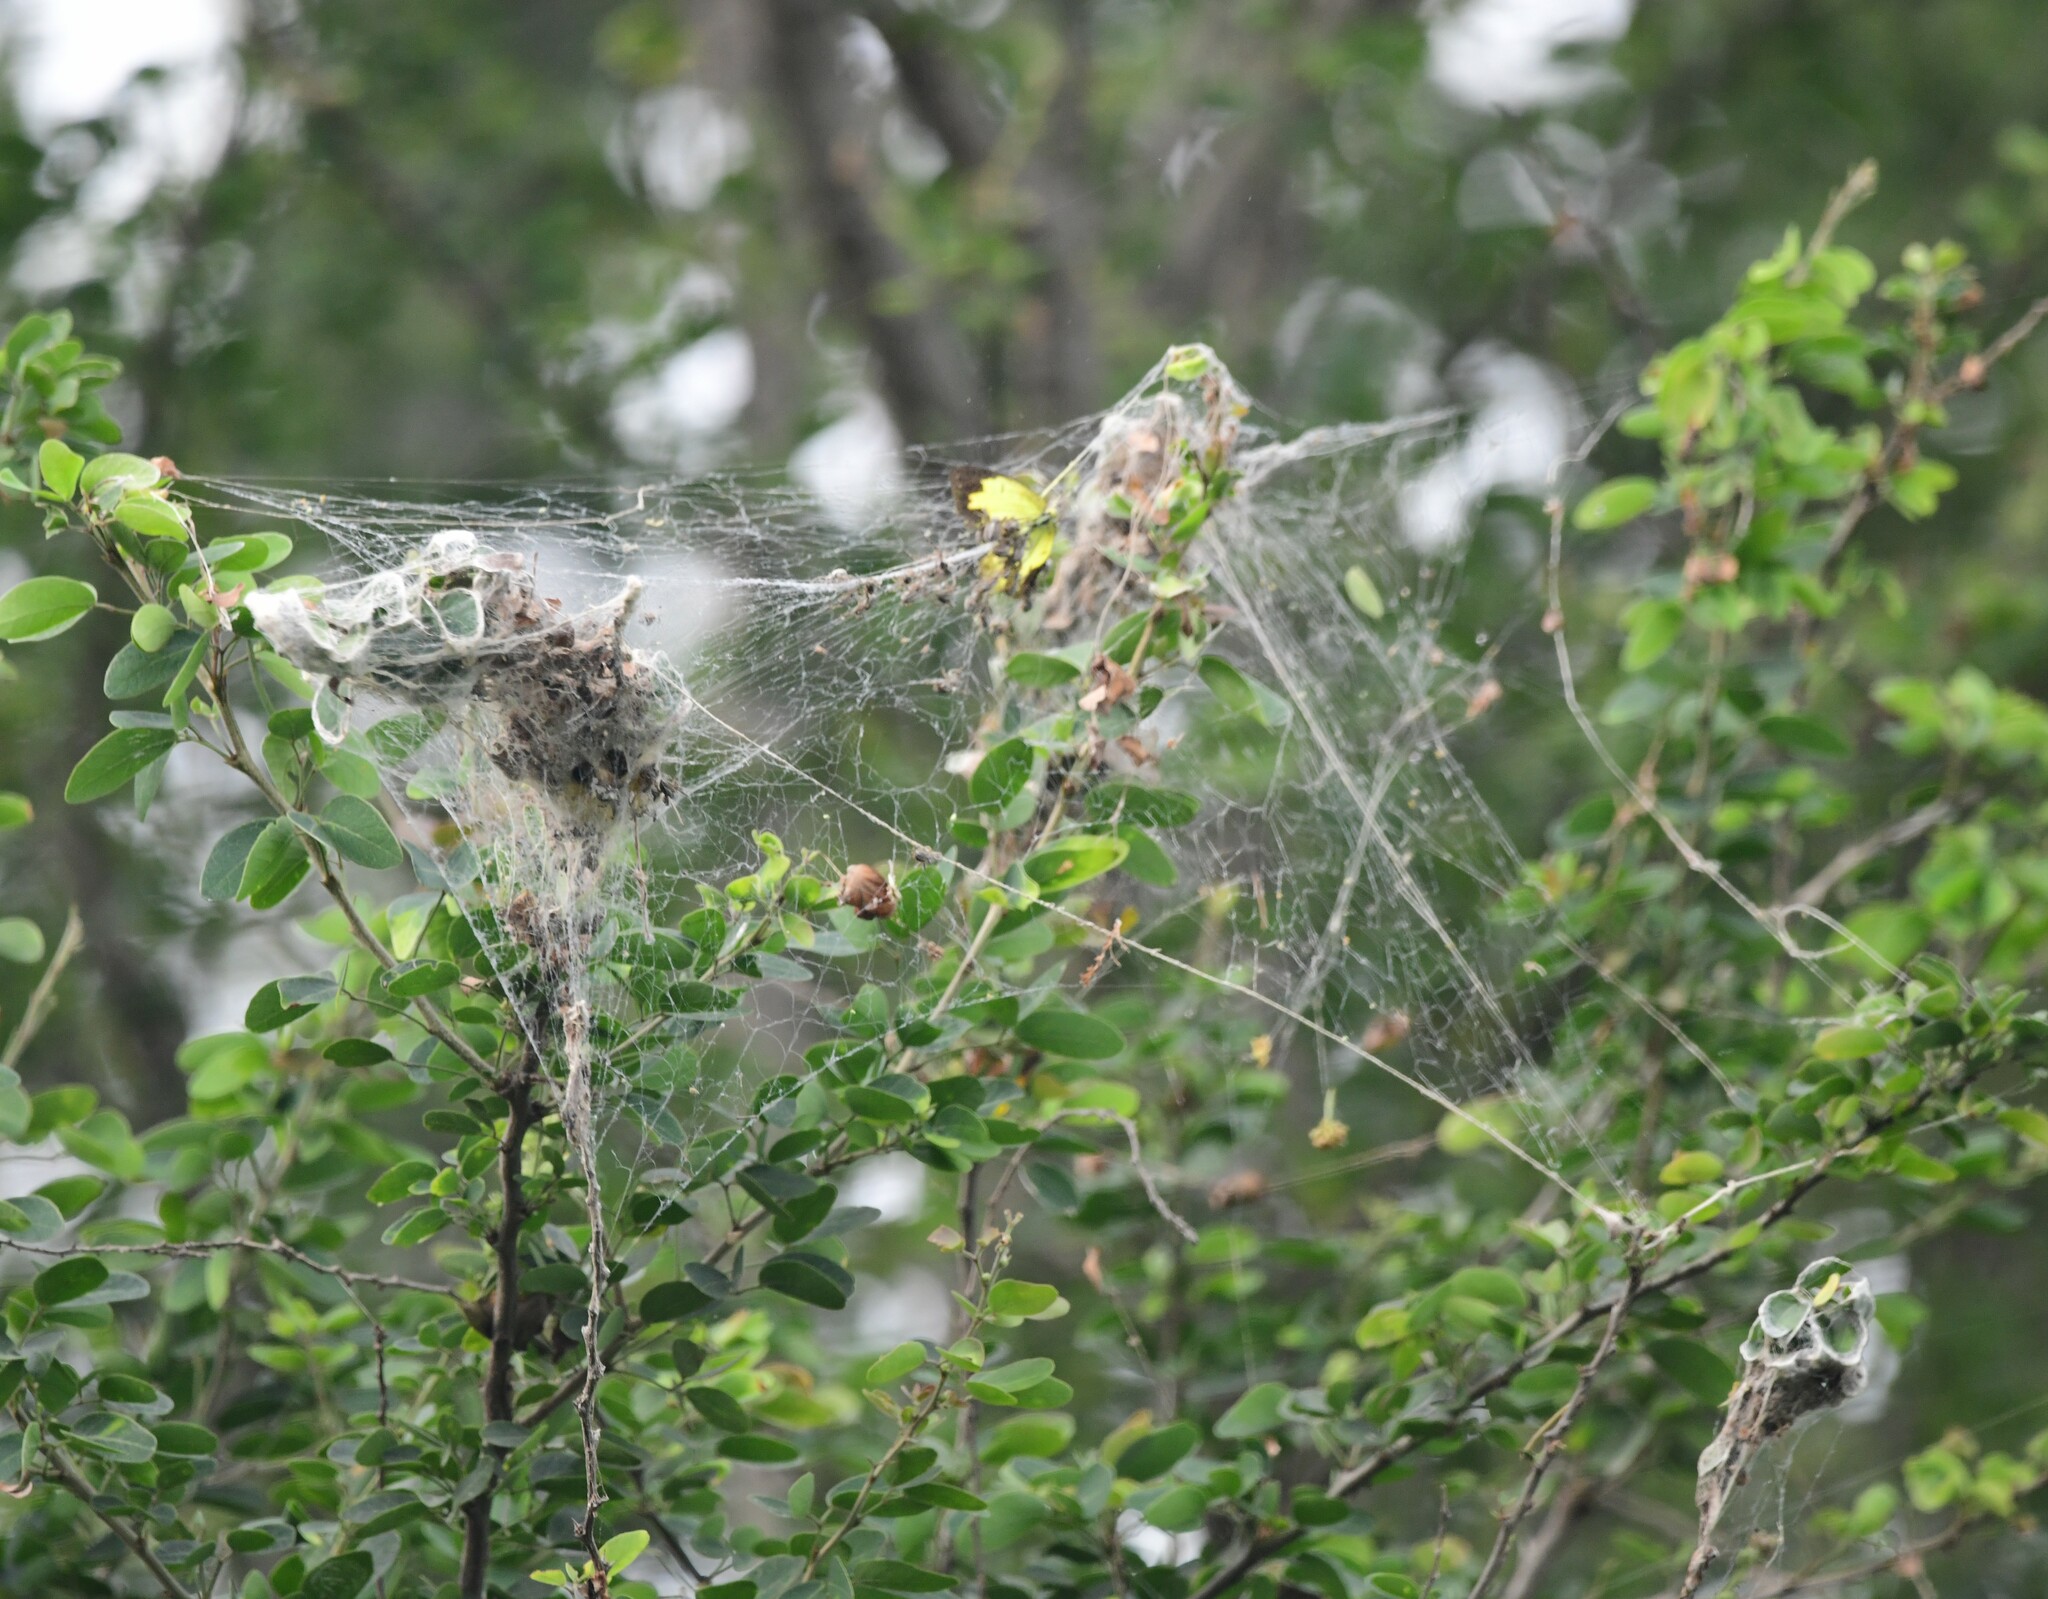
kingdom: Animalia
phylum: Arthropoda
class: Arachnida
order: Araneae
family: Eresidae
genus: Stegodyphus
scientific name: Stegodyphus sarasinorum
